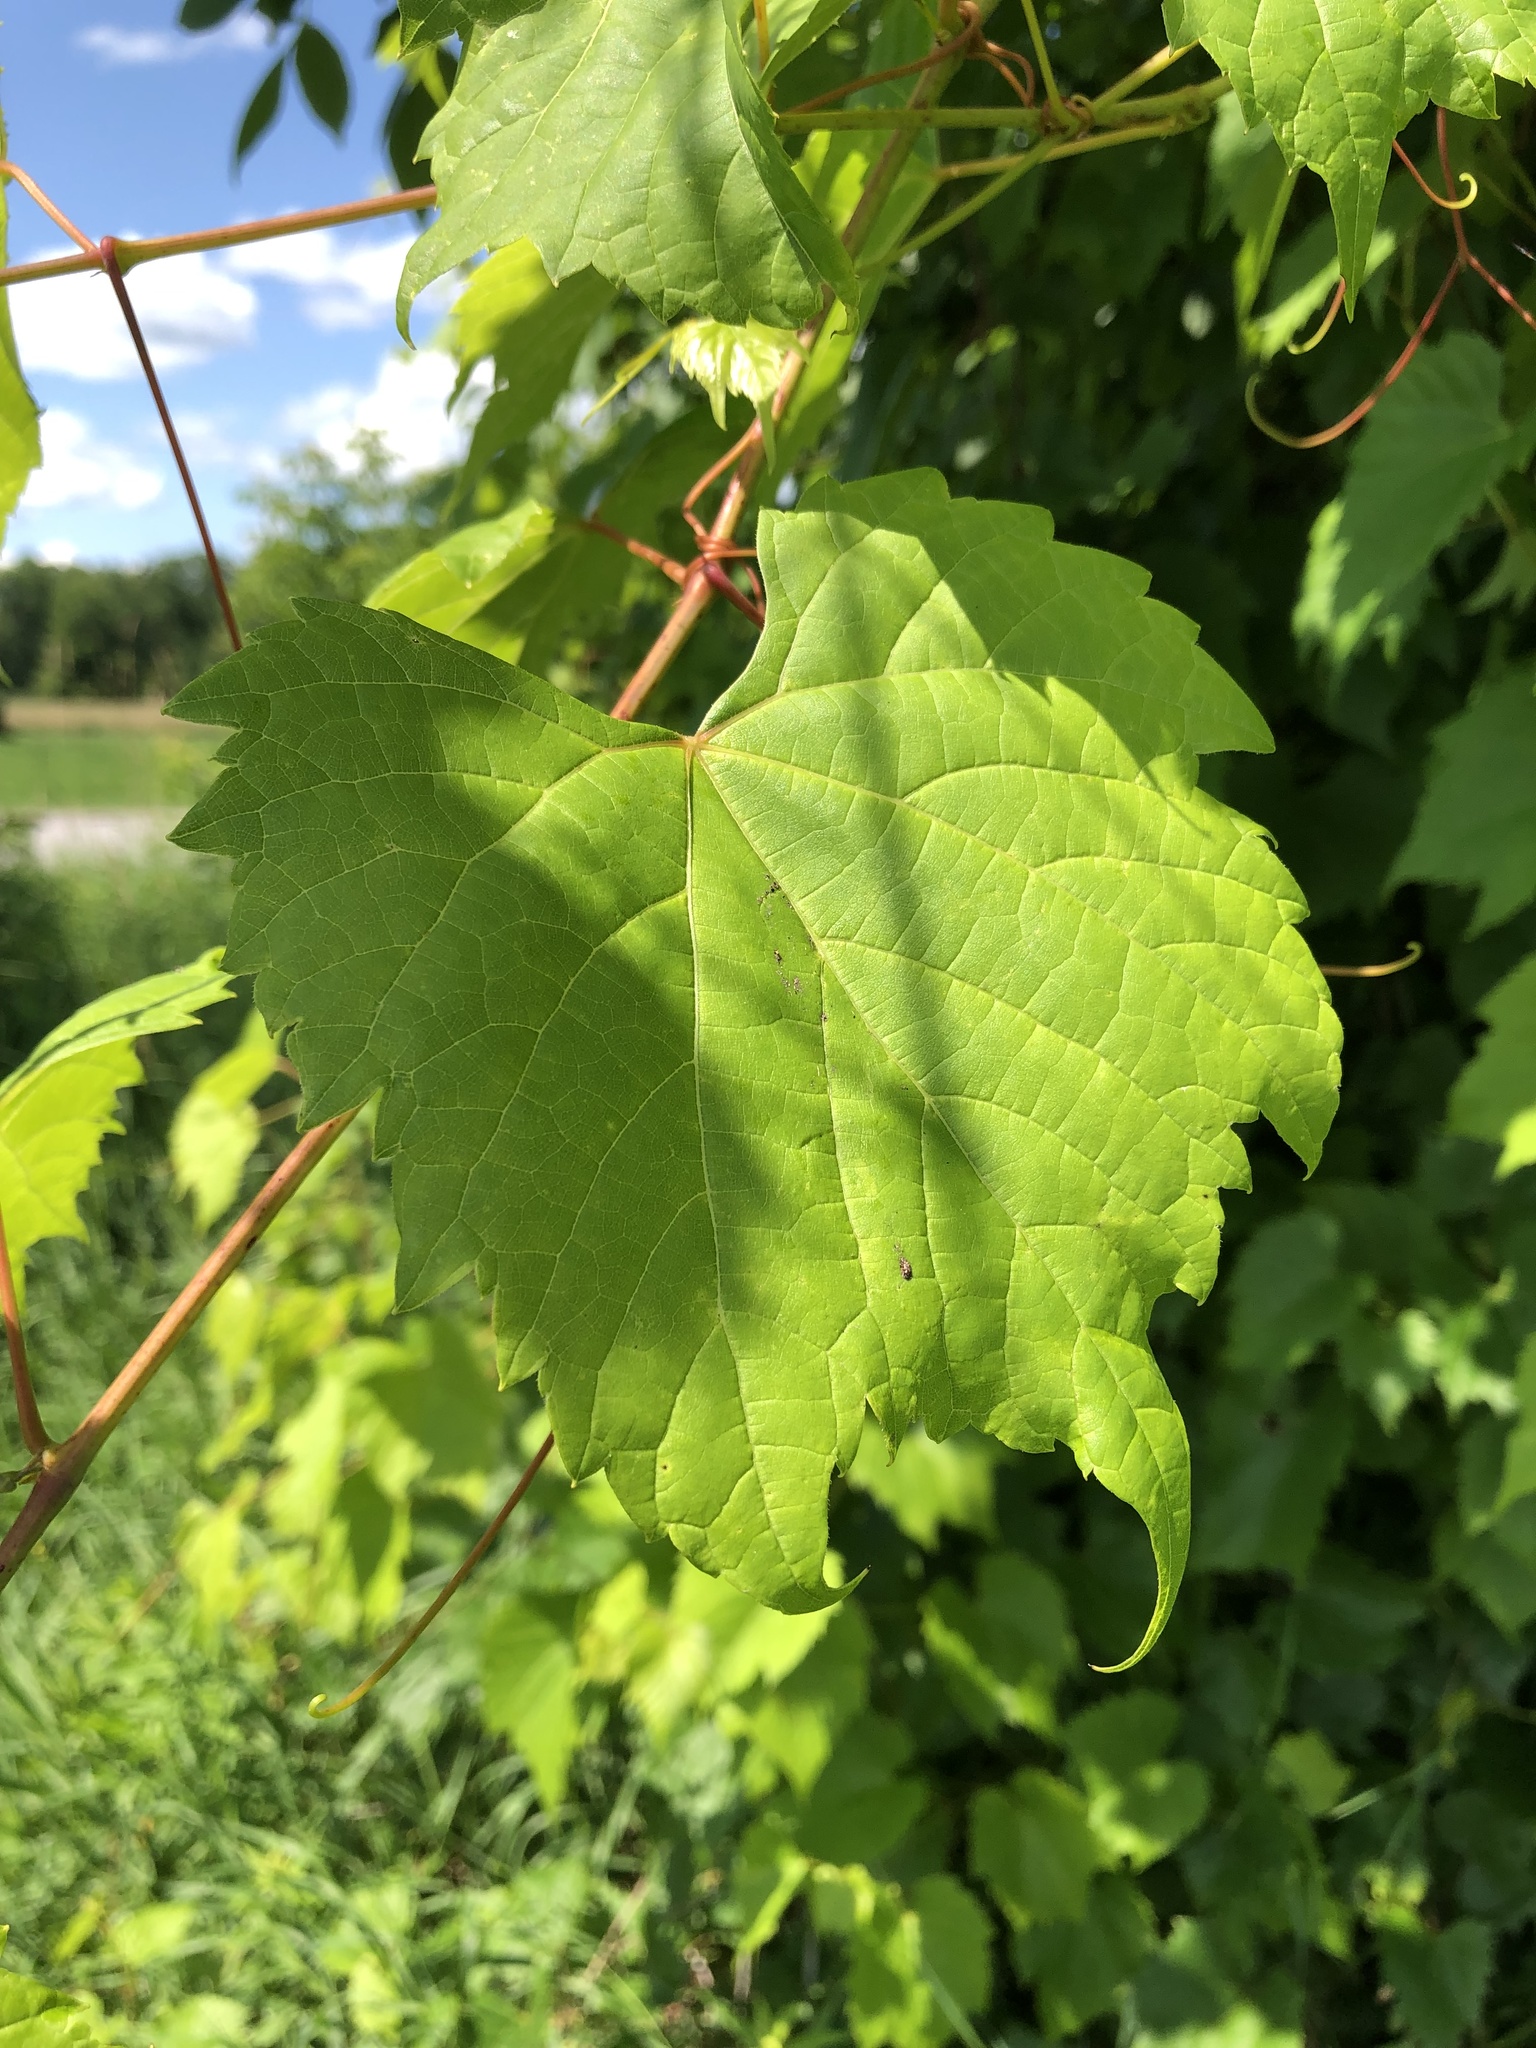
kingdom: Plantae
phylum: Tracheophyta
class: Magnoliopsida
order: Vitales
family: Vitaceae
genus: Vitis
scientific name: Vitis riparia
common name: Frost grape
